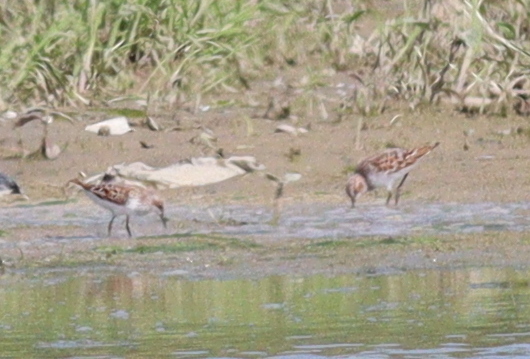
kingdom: Animalia
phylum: Chordata
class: Aves
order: Charadriiformes
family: Scolopacidae
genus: Calidris
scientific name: Calidris minuta
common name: Little stint
